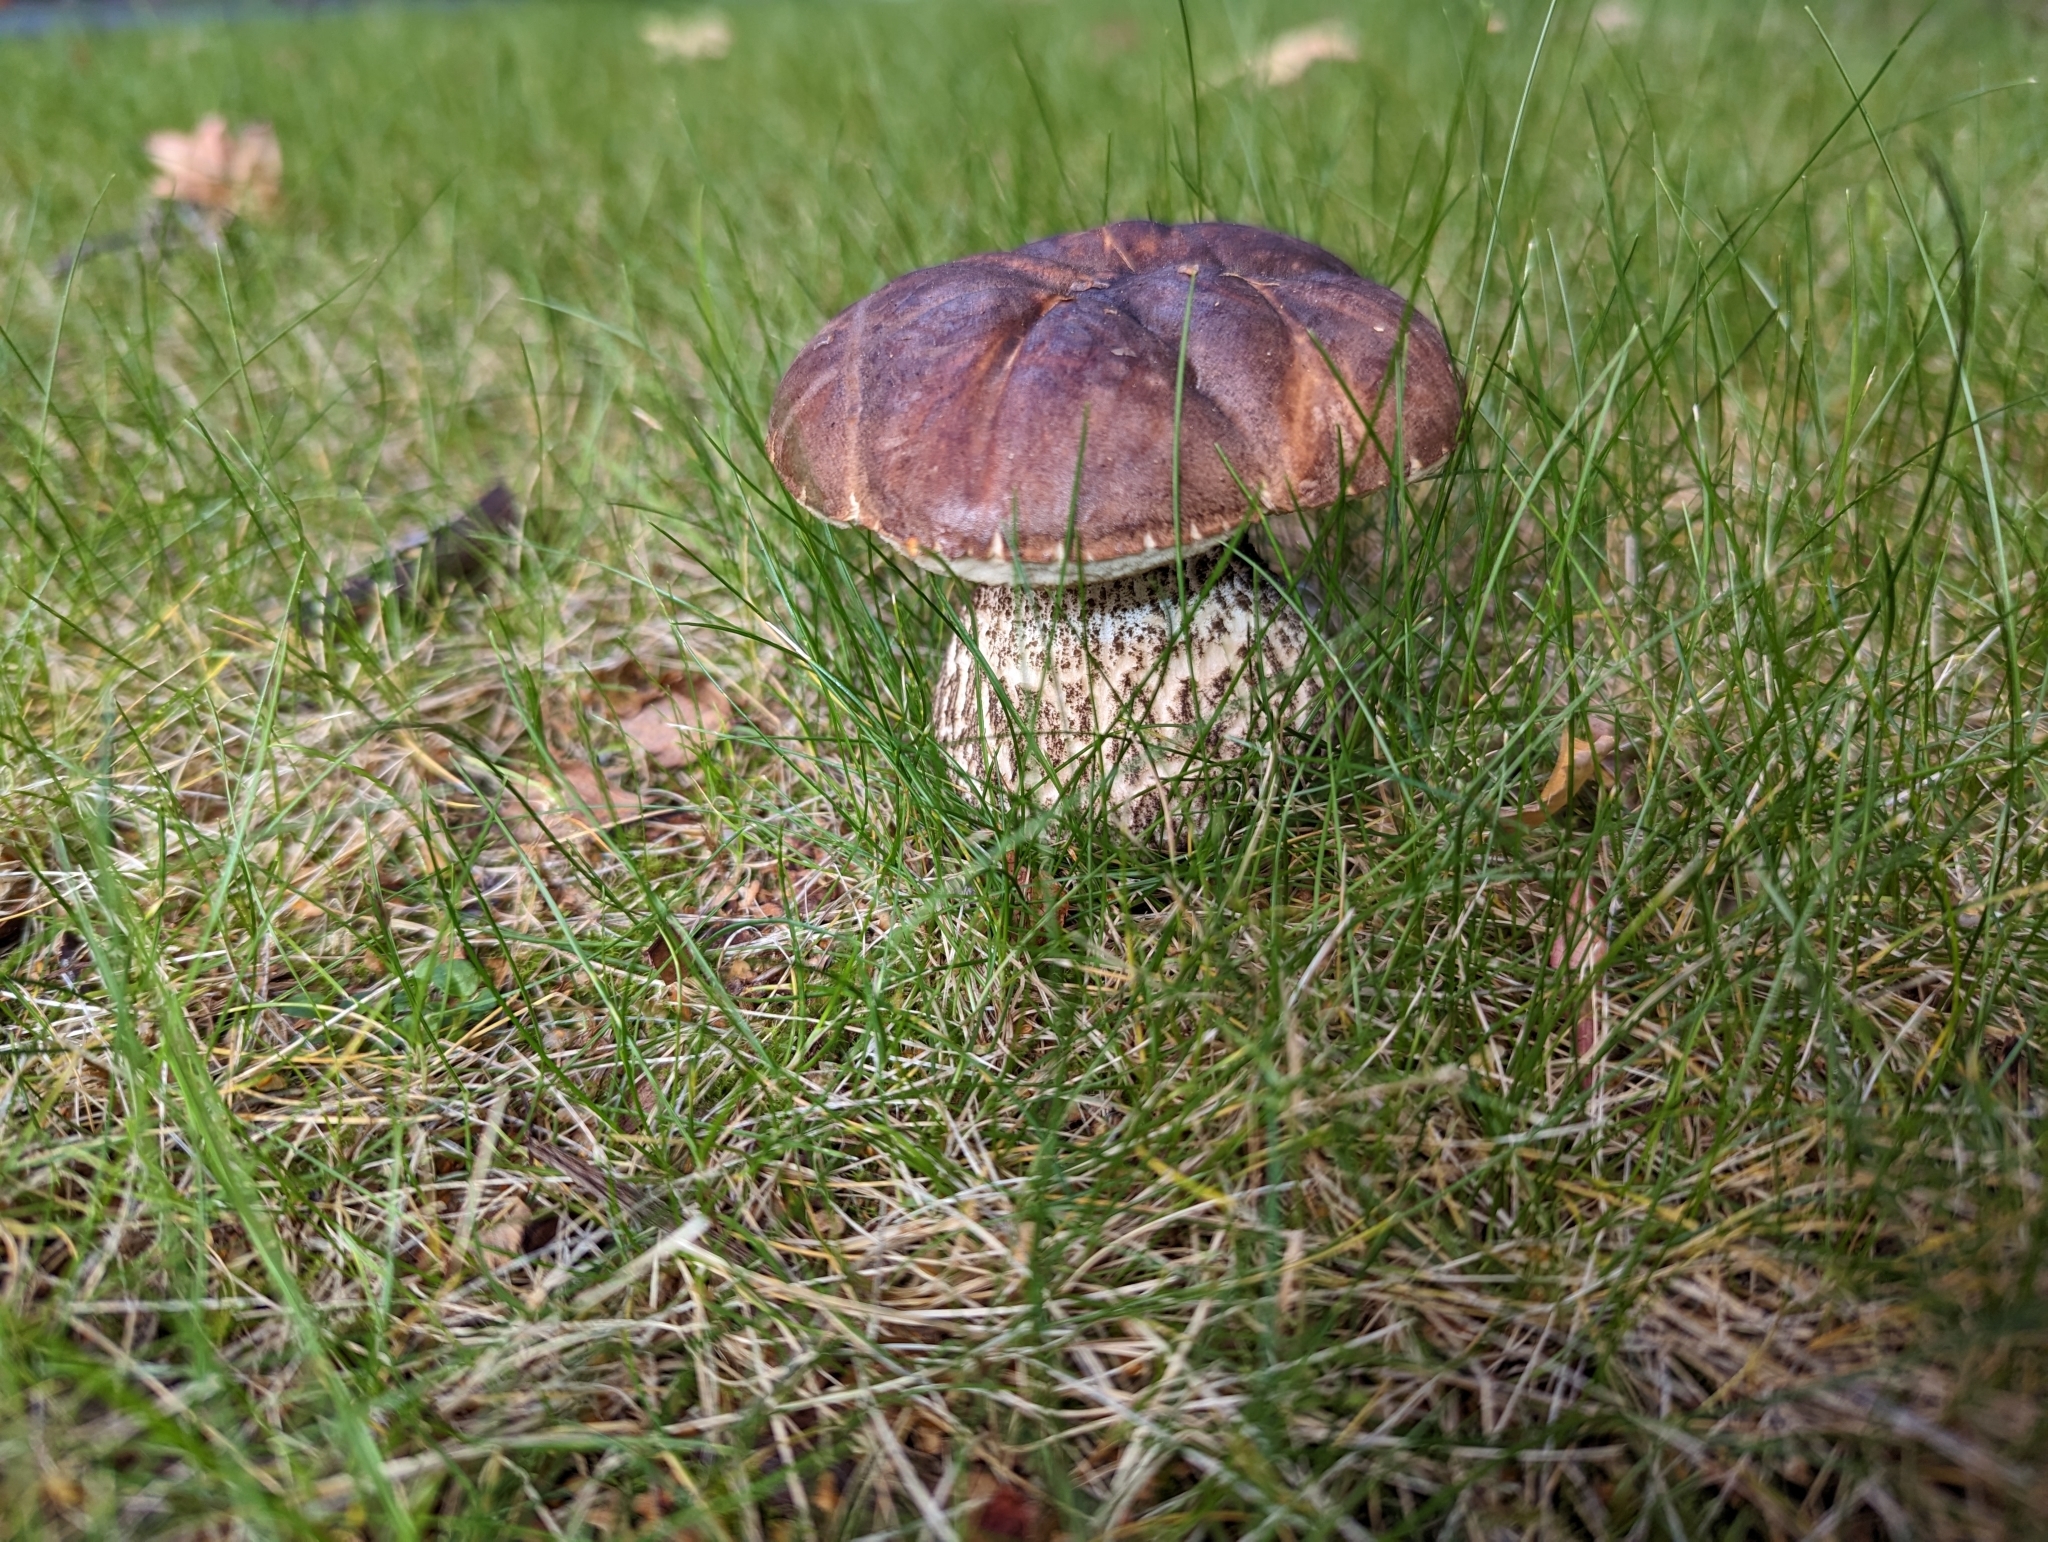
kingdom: Fungi
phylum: Basidiomycota
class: Agaricomycetes
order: Boletales
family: Boletaceae
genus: Leccinum
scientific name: Leccinum scabrum
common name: Blushing bolete
